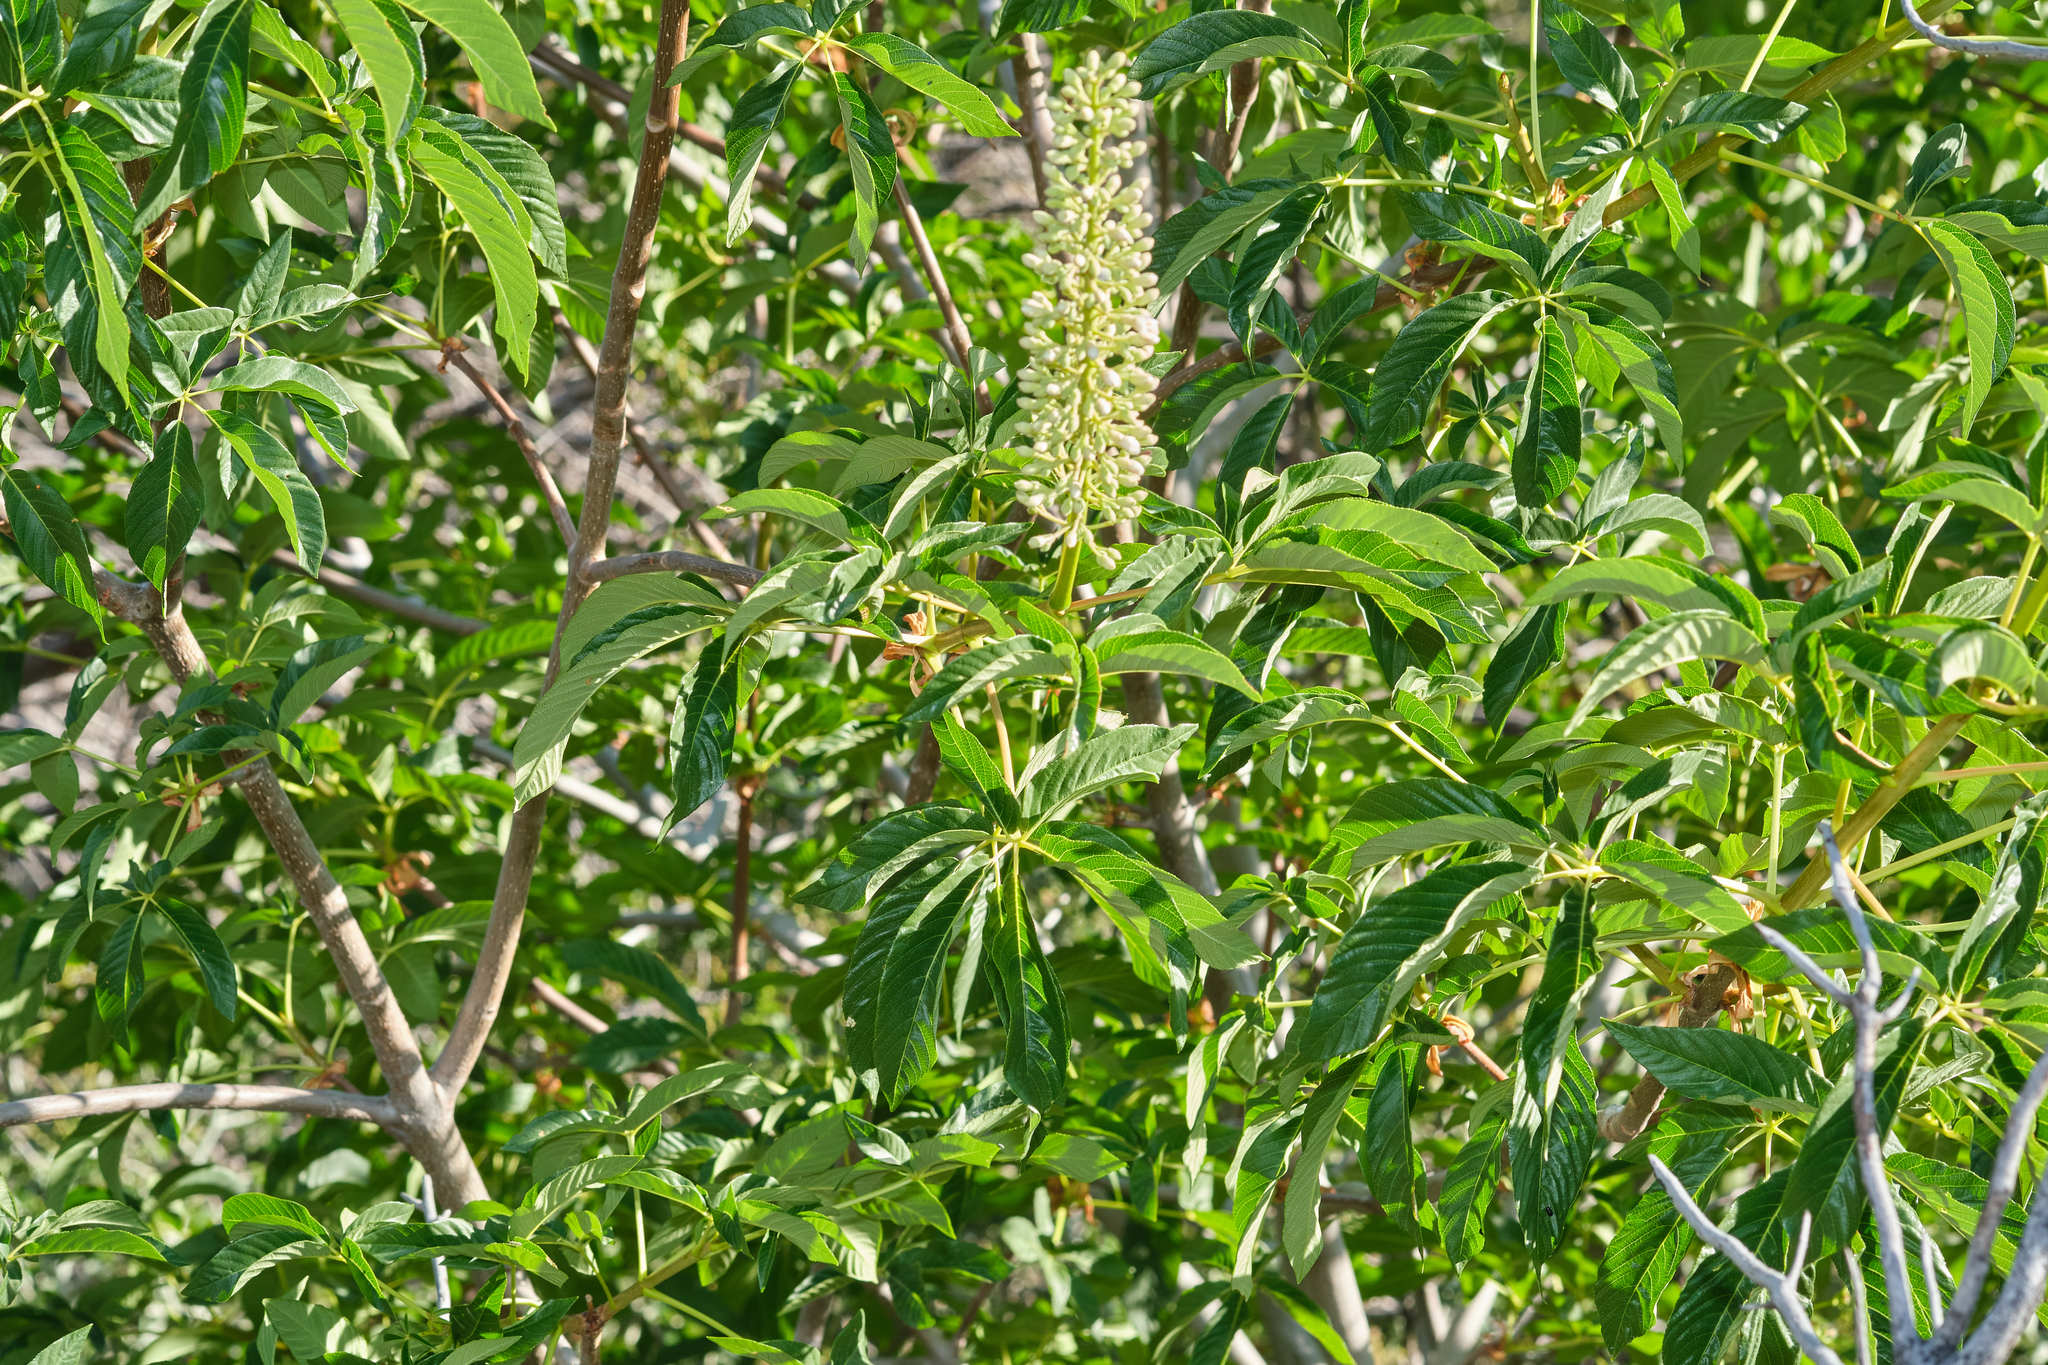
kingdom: Plantae
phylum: Tracheophyta
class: Magnoliopsida
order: Sapindales
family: Sapindaceae
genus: Aesculus
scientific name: Aesculus californica
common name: California buckeye
